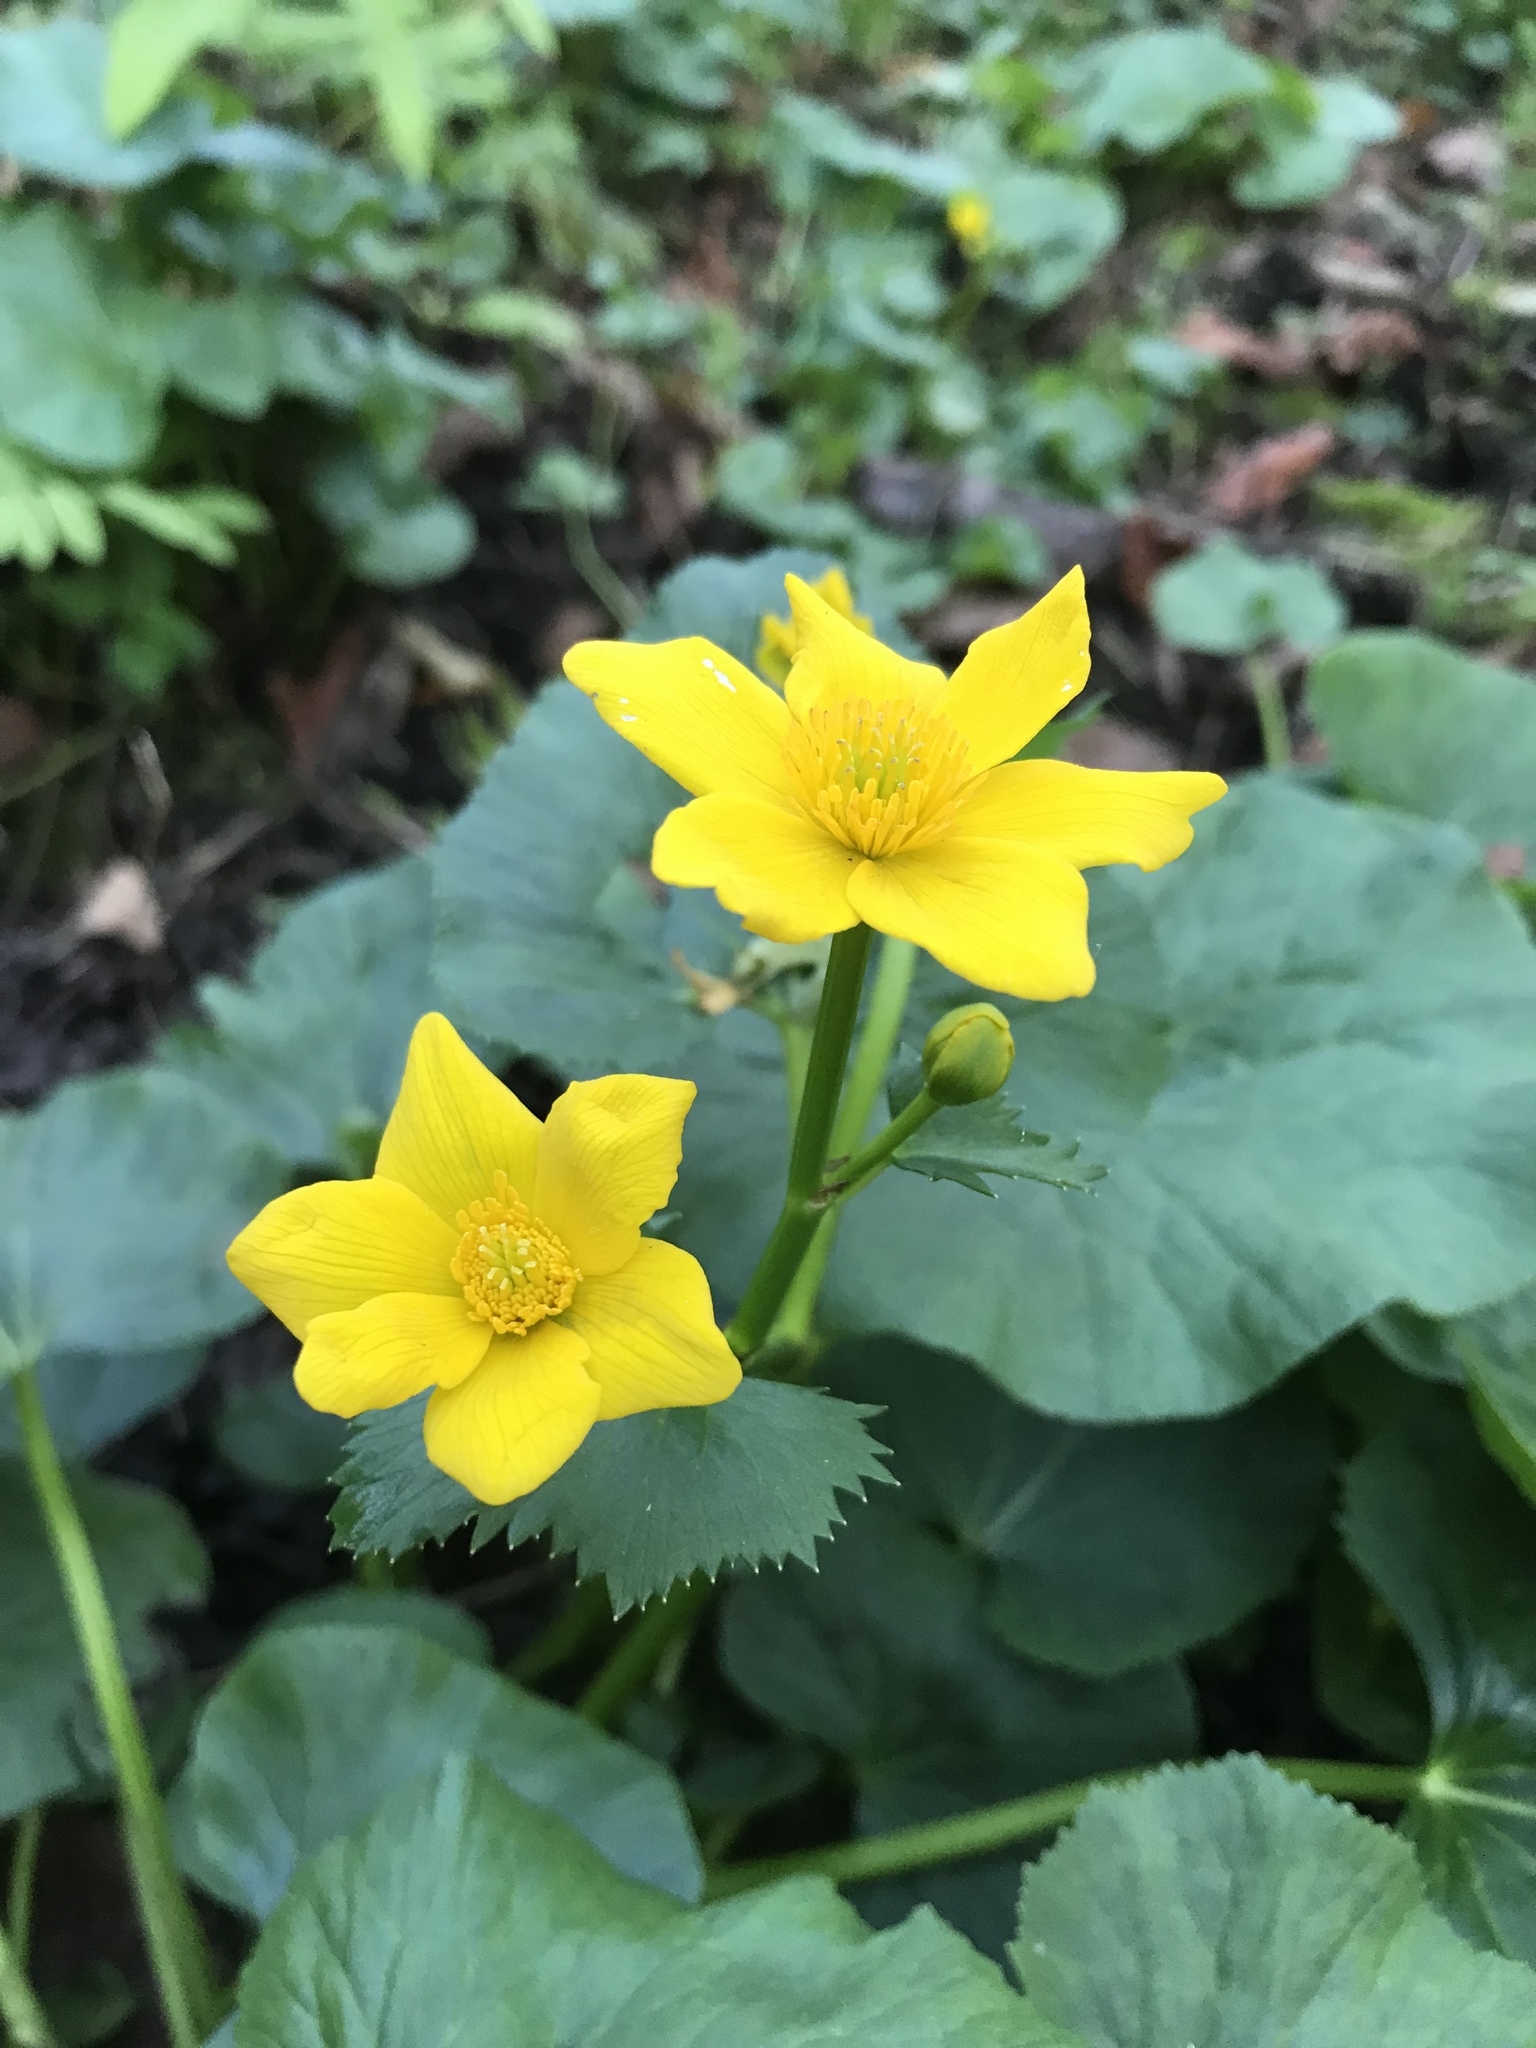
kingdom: Plantae
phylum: Tracheophyta
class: Magnoliopsida
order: Ranunculales
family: Ranunculaceae
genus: Caltha
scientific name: Caltha palustris
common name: Marsh marigold
